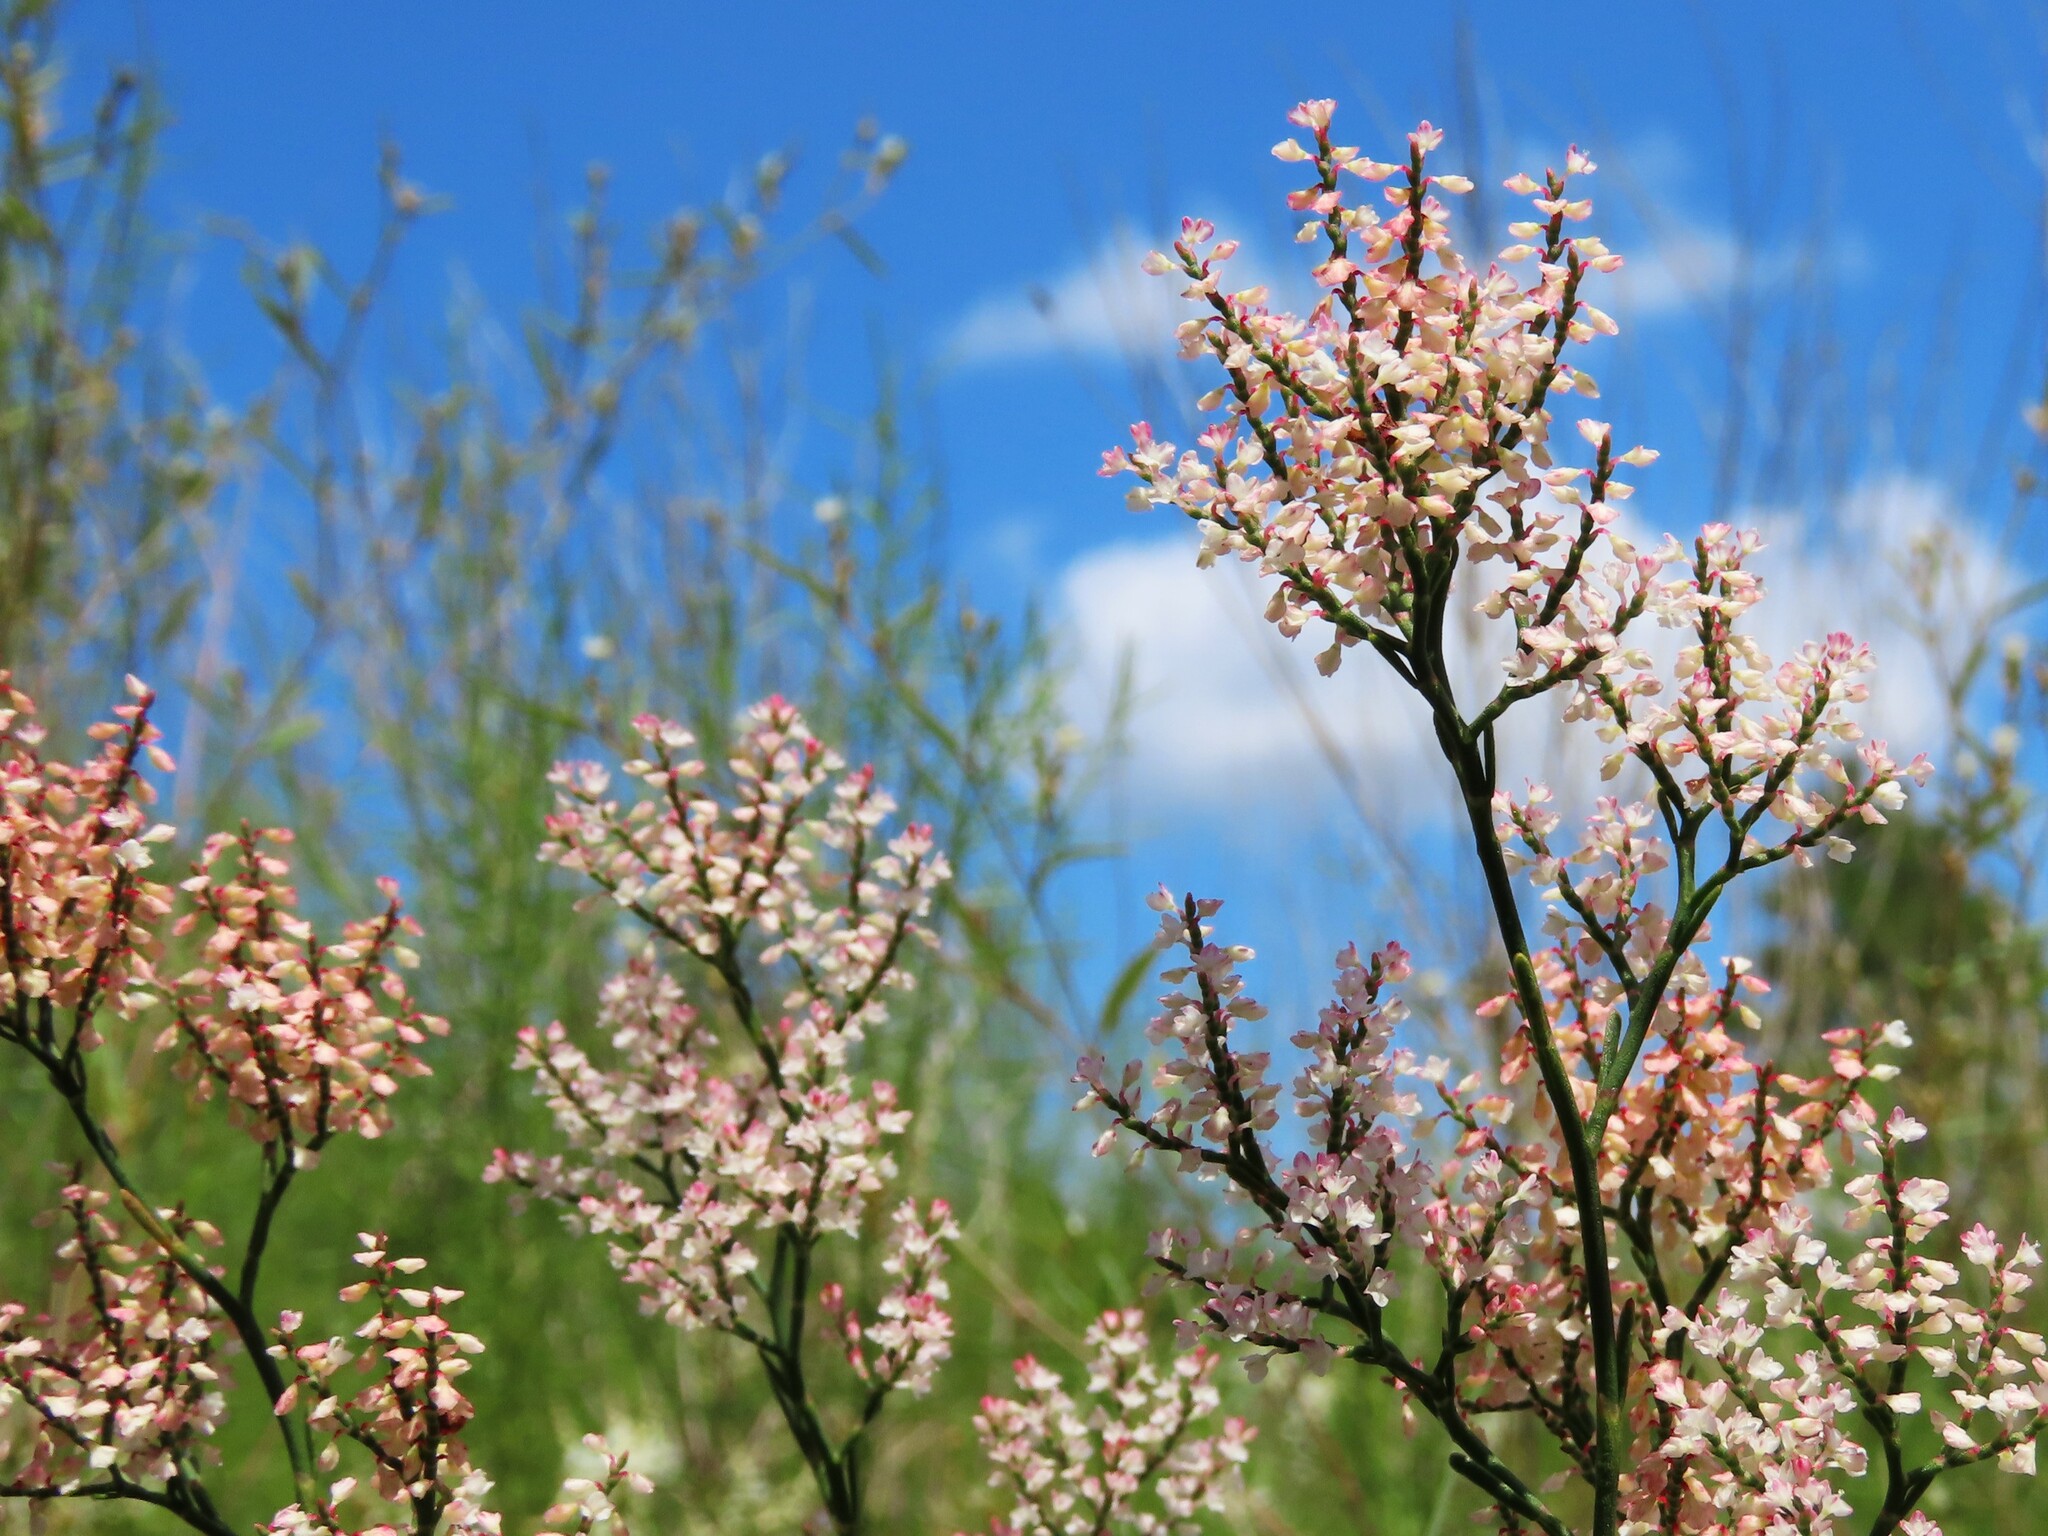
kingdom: Plantae
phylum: Tracheophyta
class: Magnoliopsida
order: Caryophyllales
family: Polygonaceae
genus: Polygonella
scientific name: Polygonella polygama
